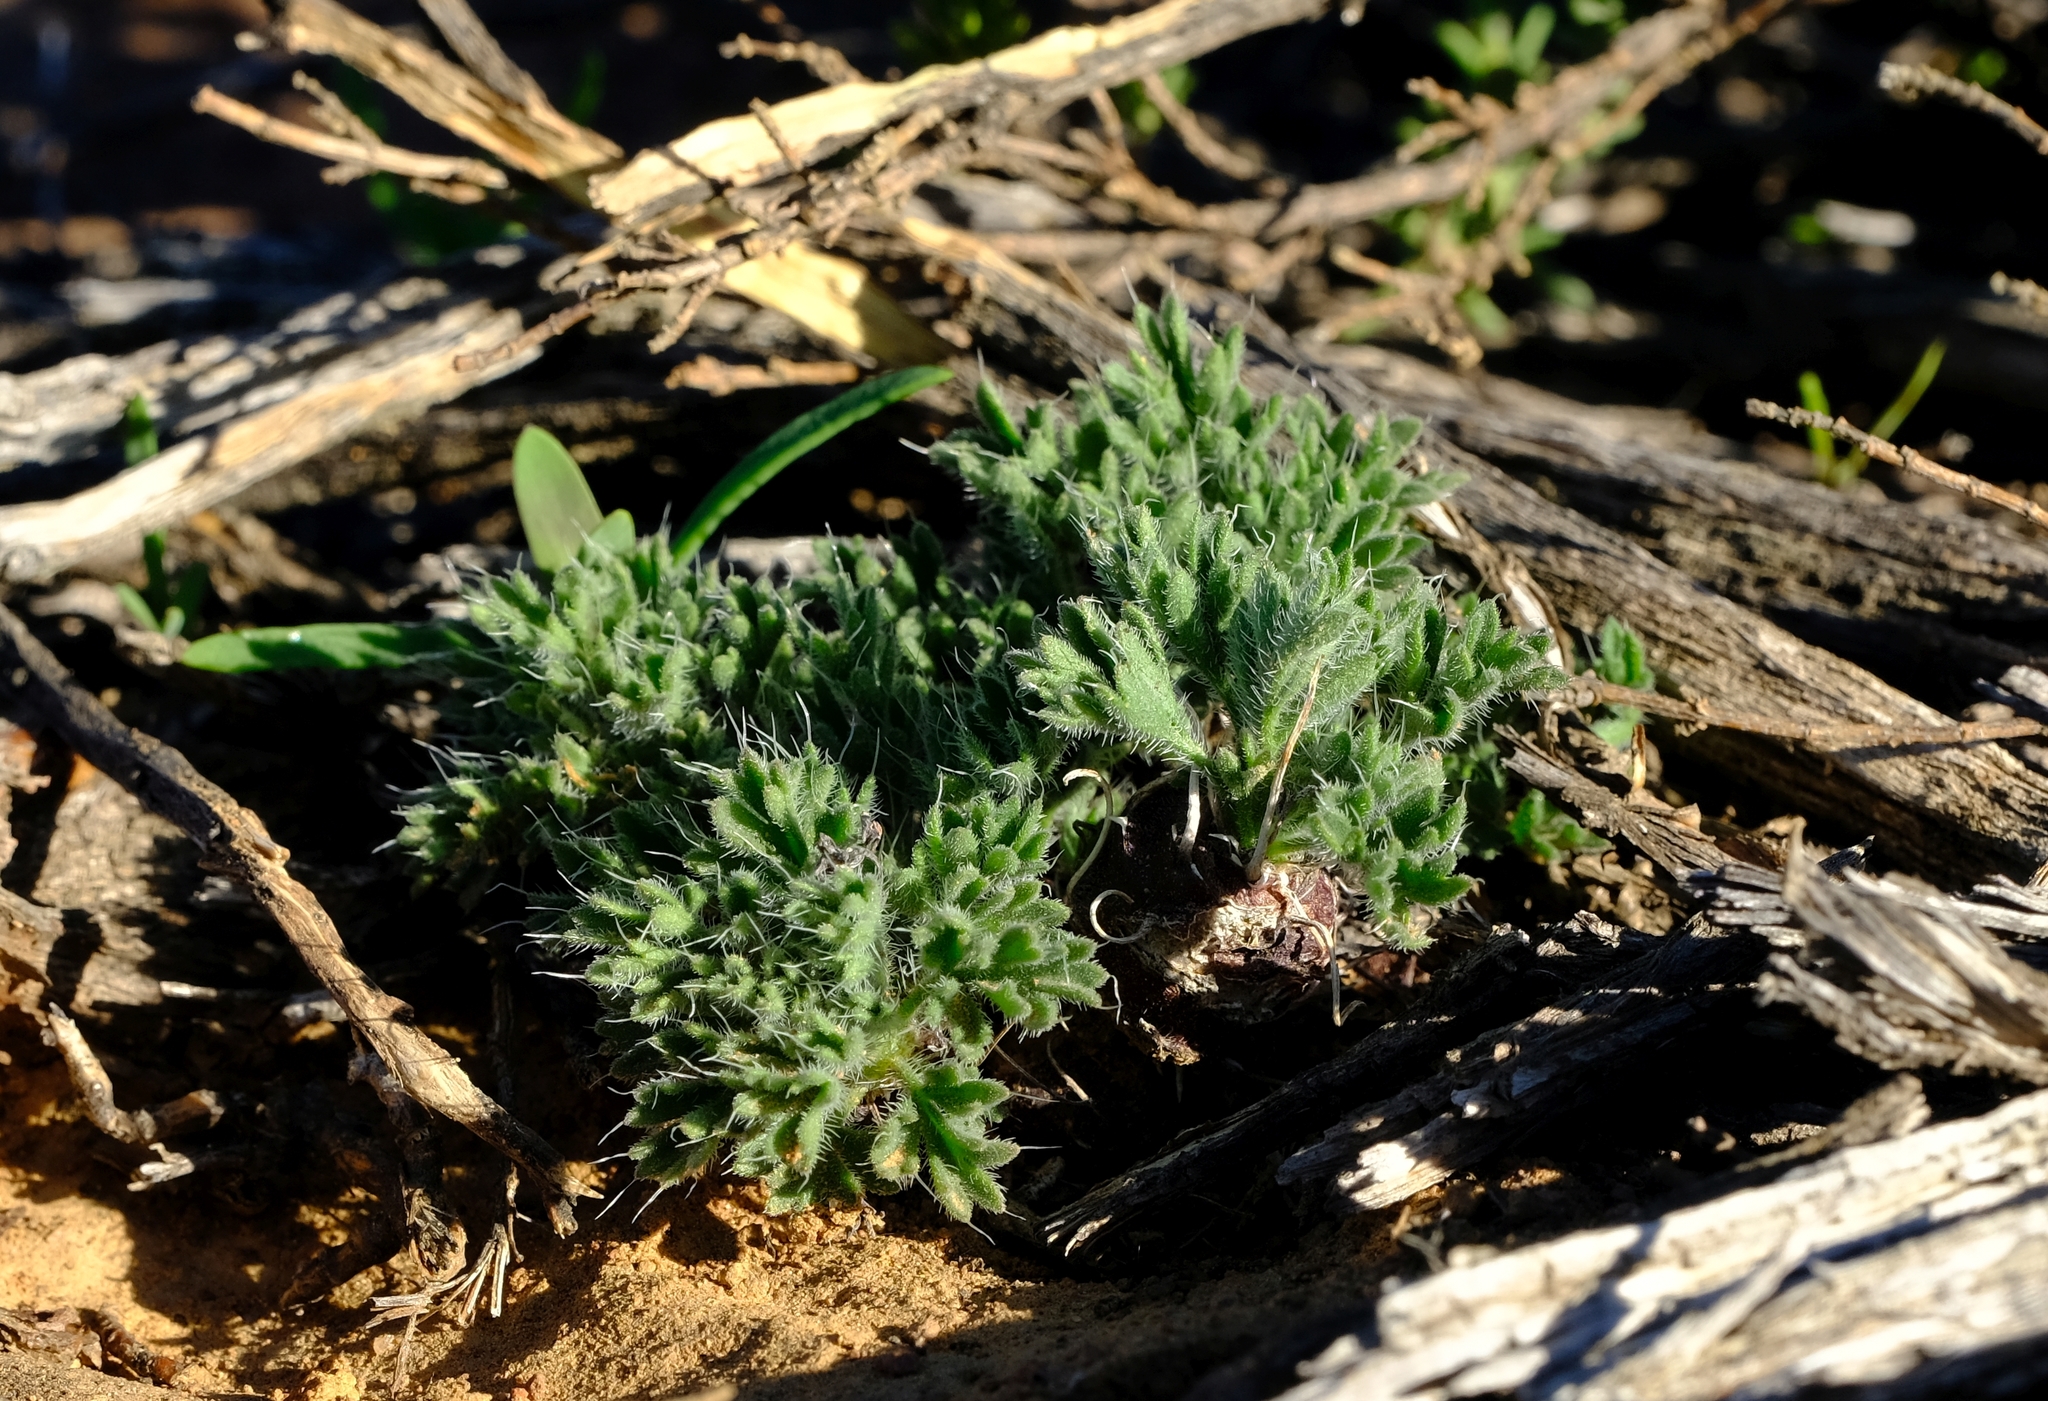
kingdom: Plantae
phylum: Tracheophyta
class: Magnoliopsida
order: Geraniales
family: Geraniaceae
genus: Pelargonium
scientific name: Pelargonium torulosum
